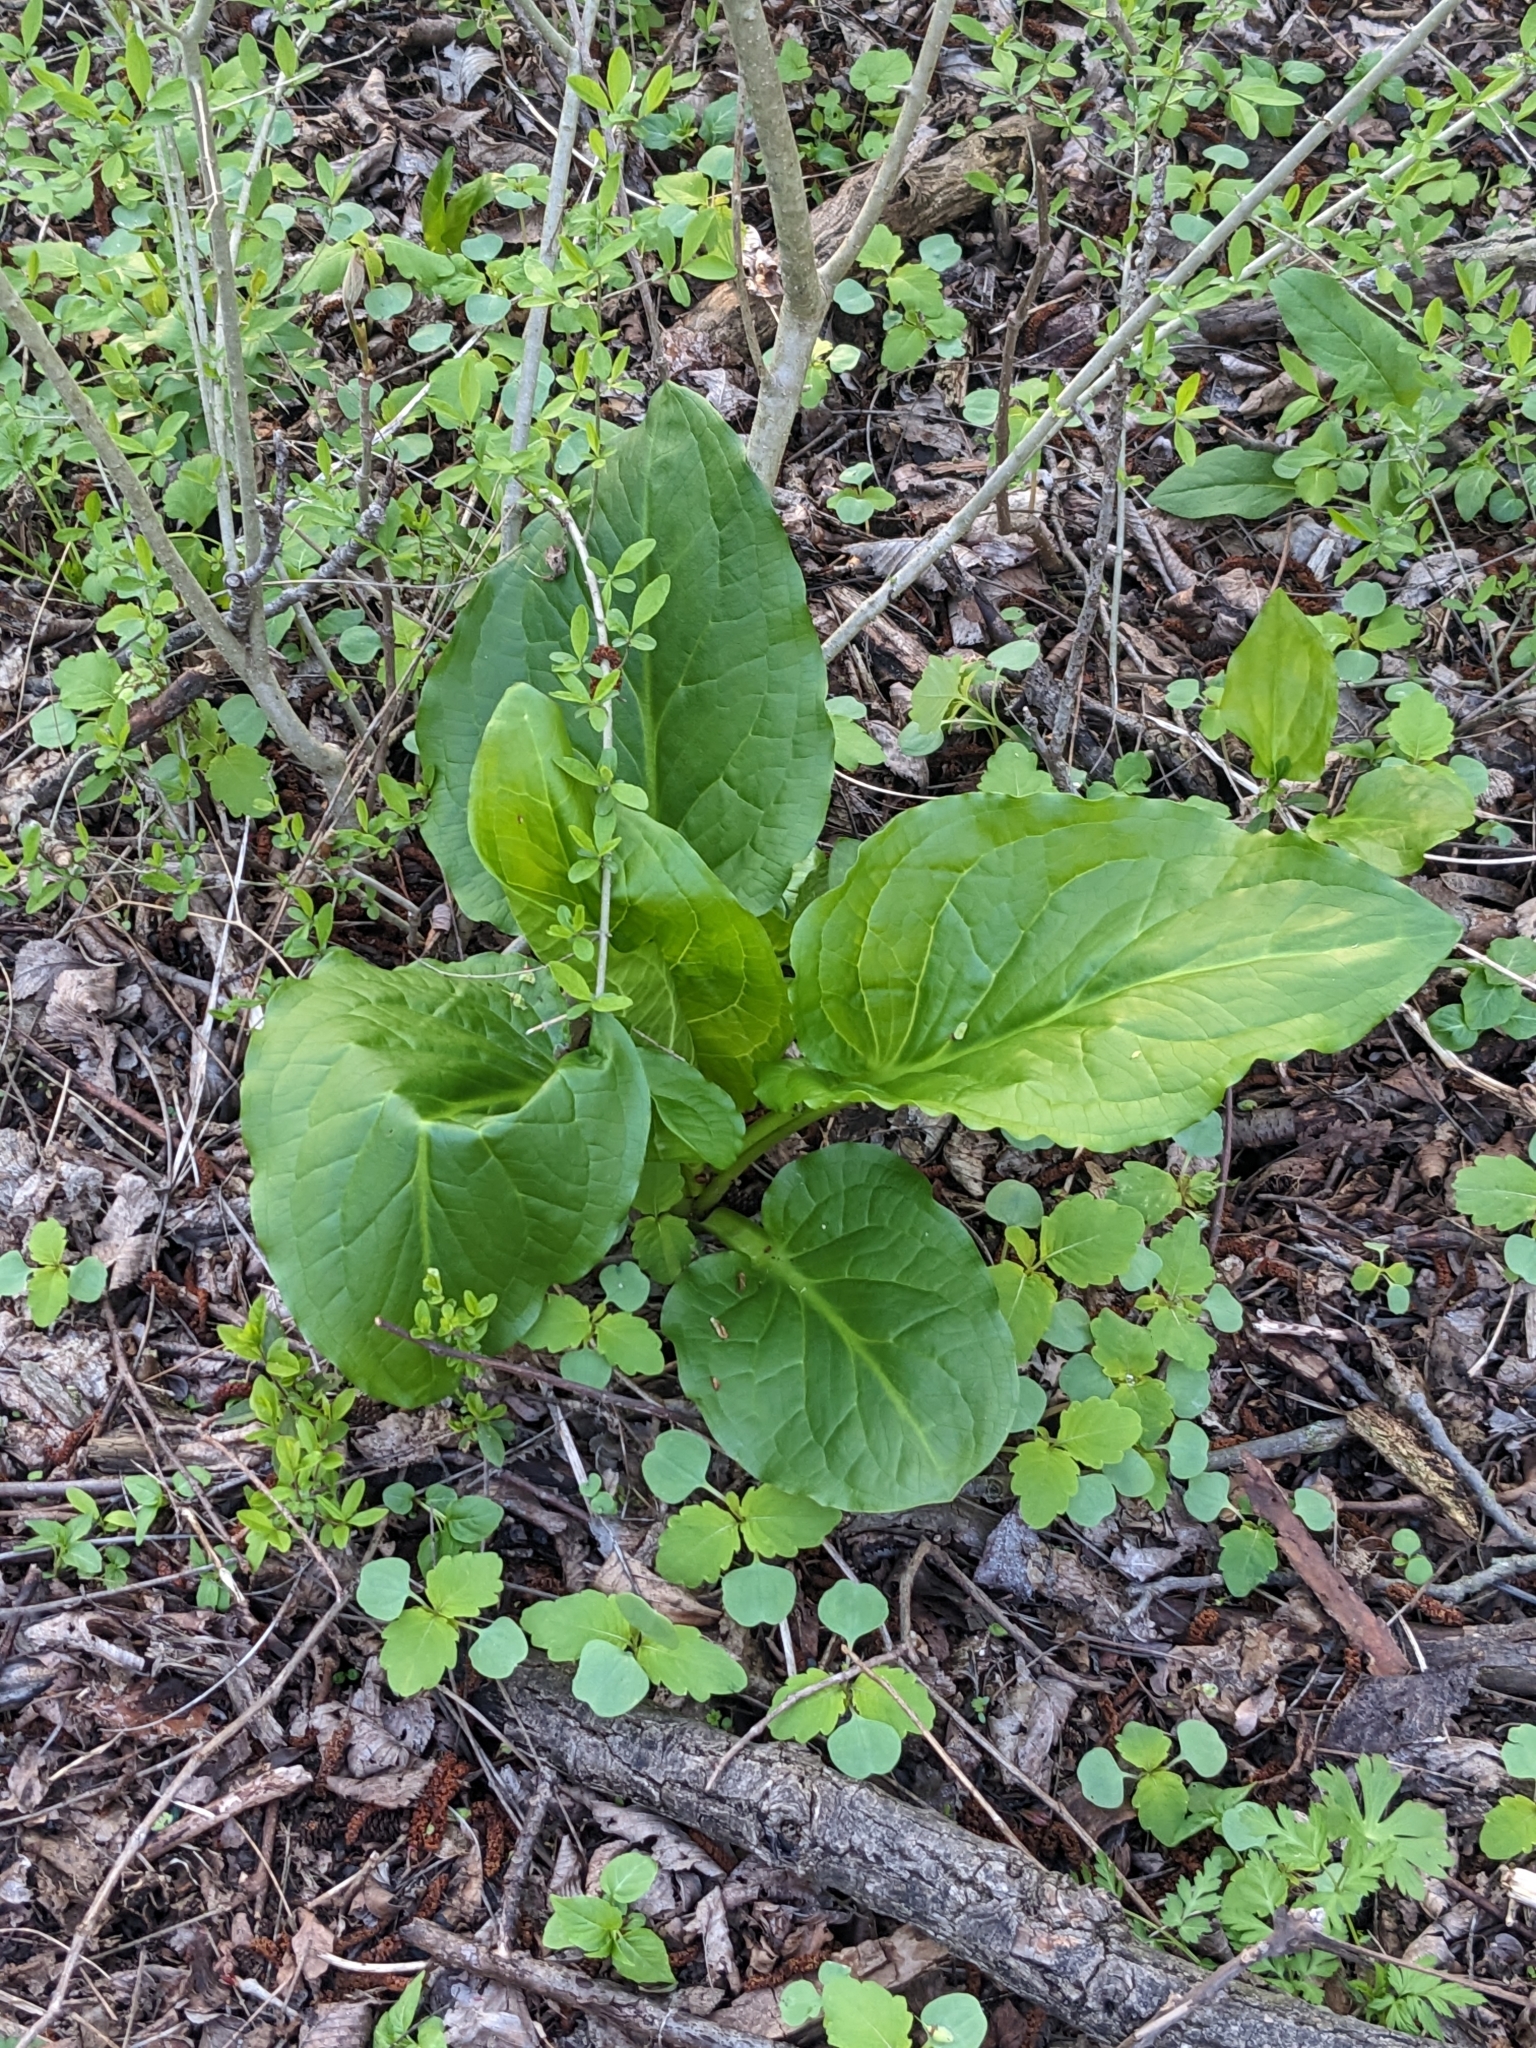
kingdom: Plantae
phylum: Tracheophyta
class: Liliopsida
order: Alismatales
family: Araceae
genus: Symplocarpus
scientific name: Symplocarpus foetidus
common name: Eastern skunk cabbage
